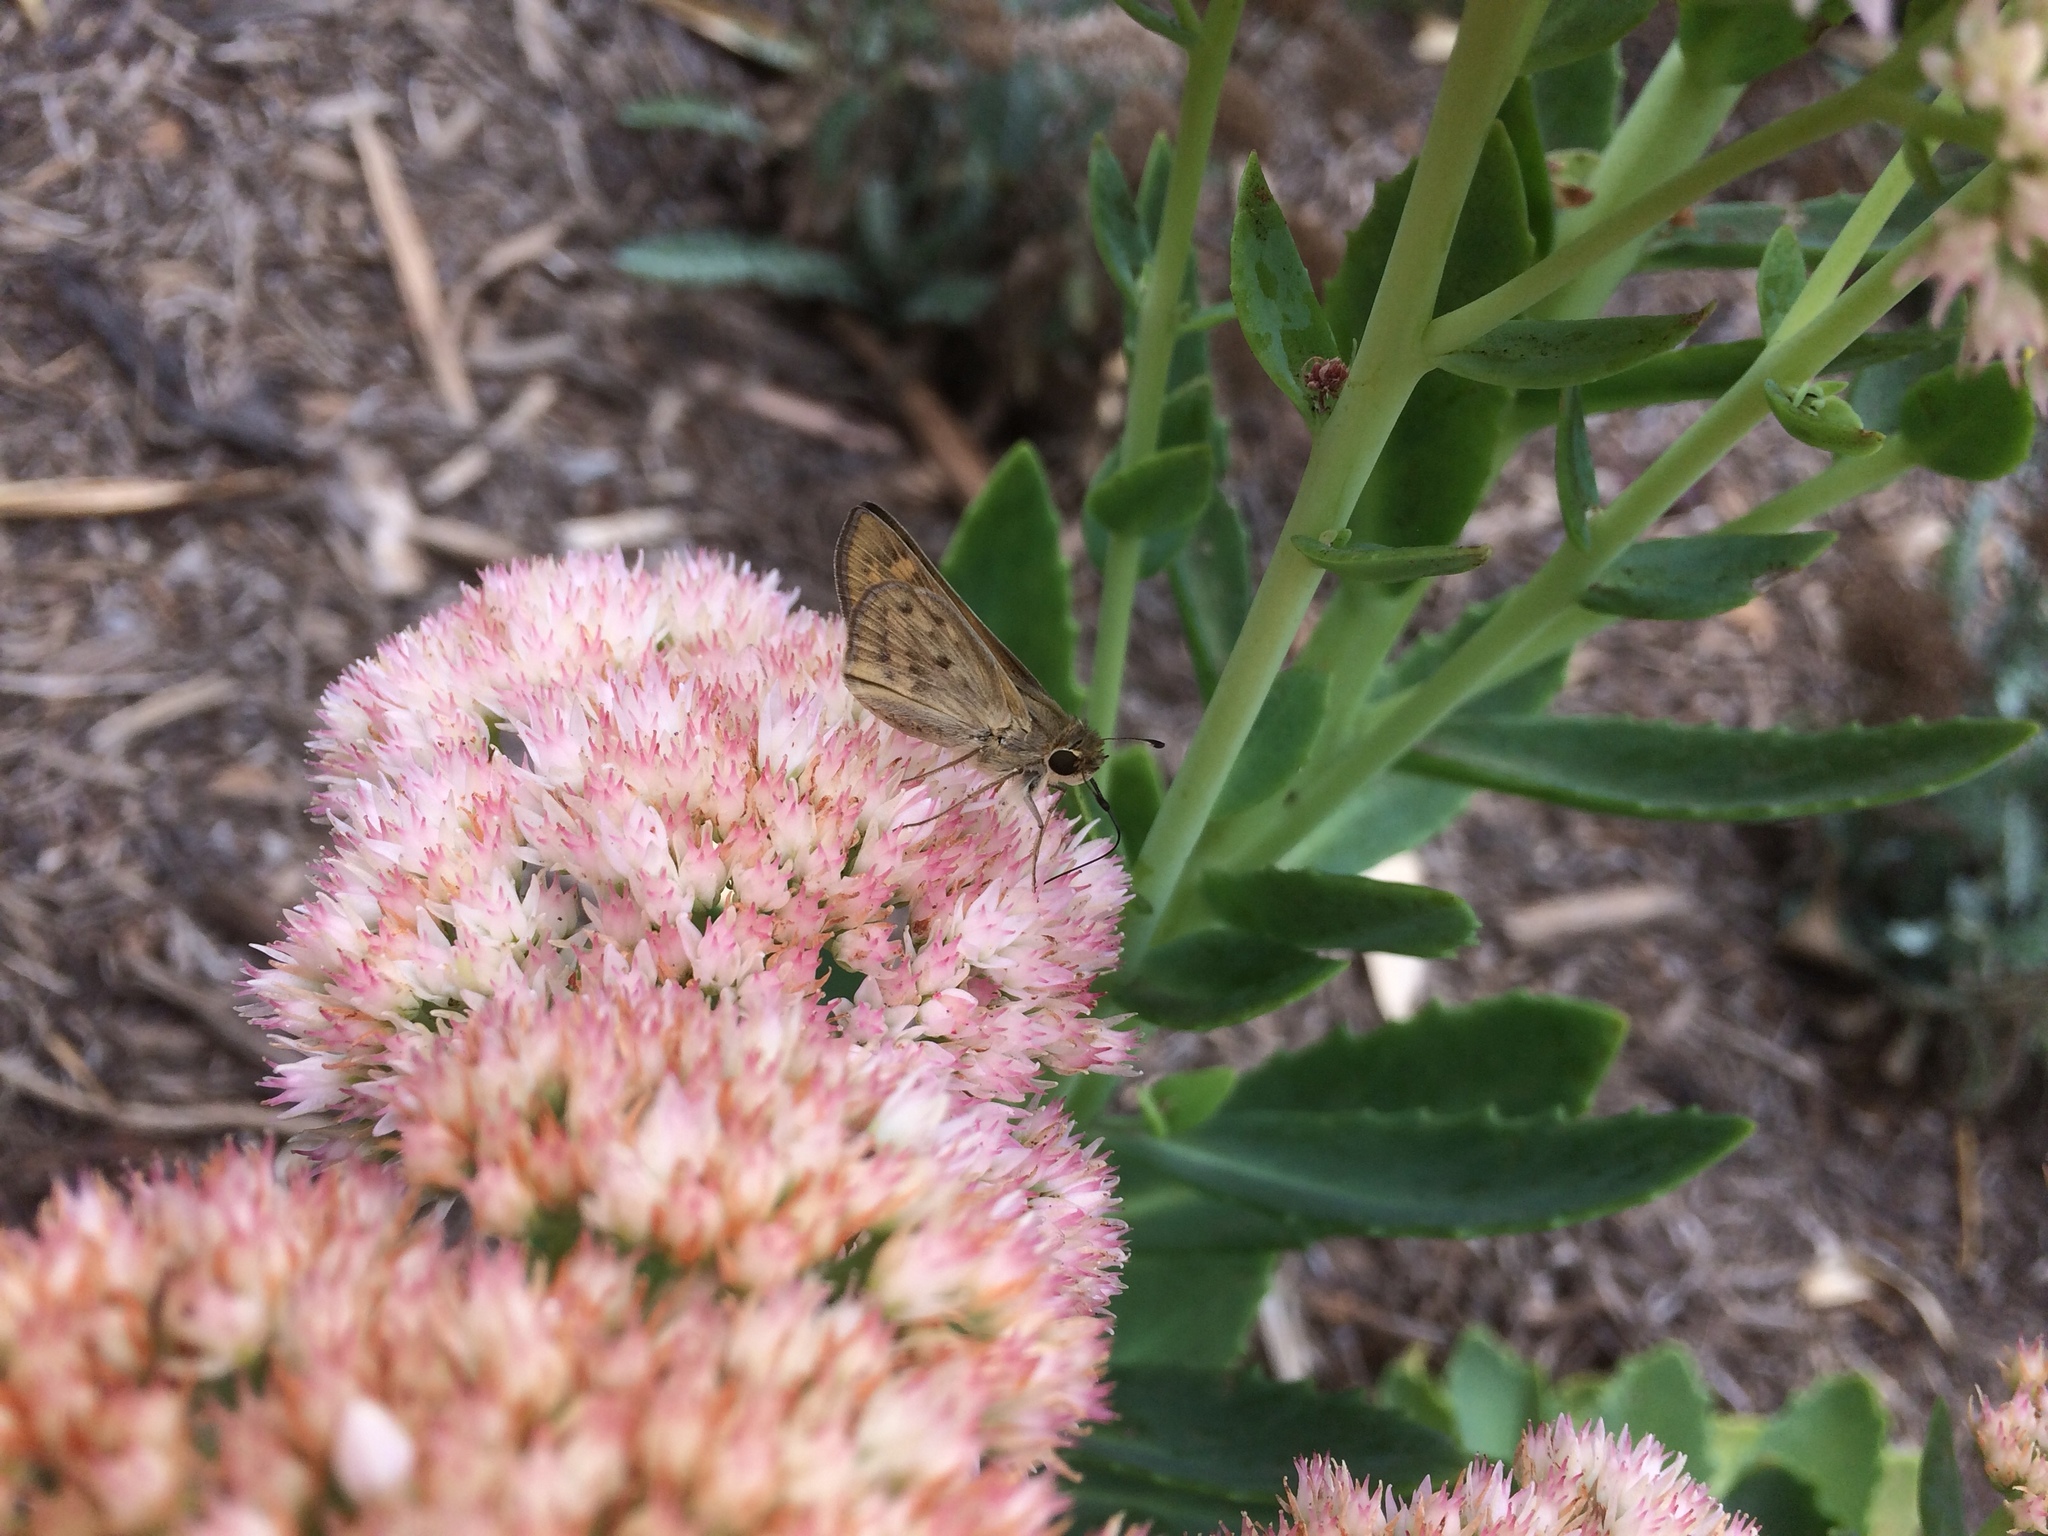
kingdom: Animalia
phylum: Arthropoda
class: Insecta
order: Lepidoptera
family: Hesperiidae
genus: Hylephila
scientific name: Hylephila phyleus
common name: Fiery skipper
